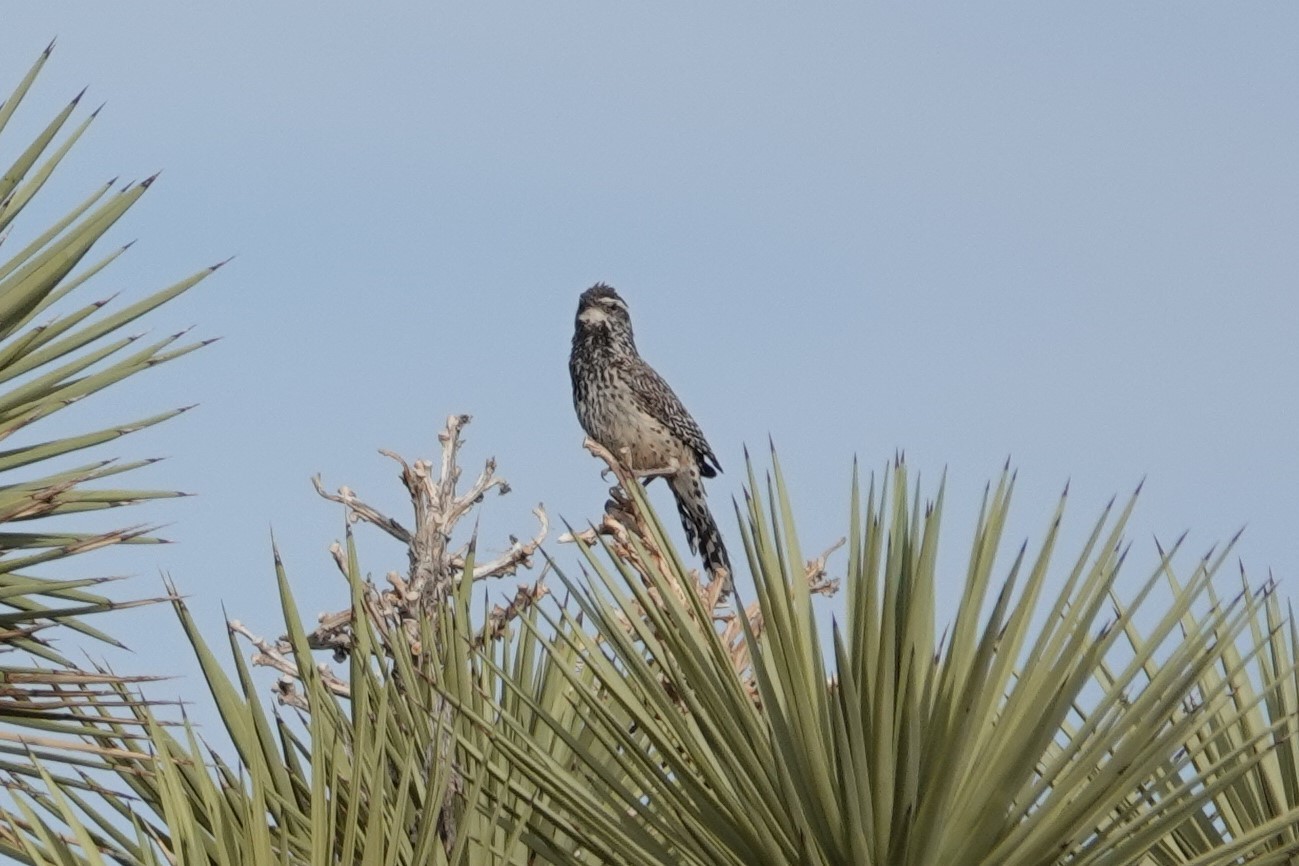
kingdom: Animalia
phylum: Chordata
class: Aves
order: Passeriformes
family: Troglodytidae
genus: Campylorhynchus
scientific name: Campylorhynchus brunneicapillus
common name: Cactus wren
